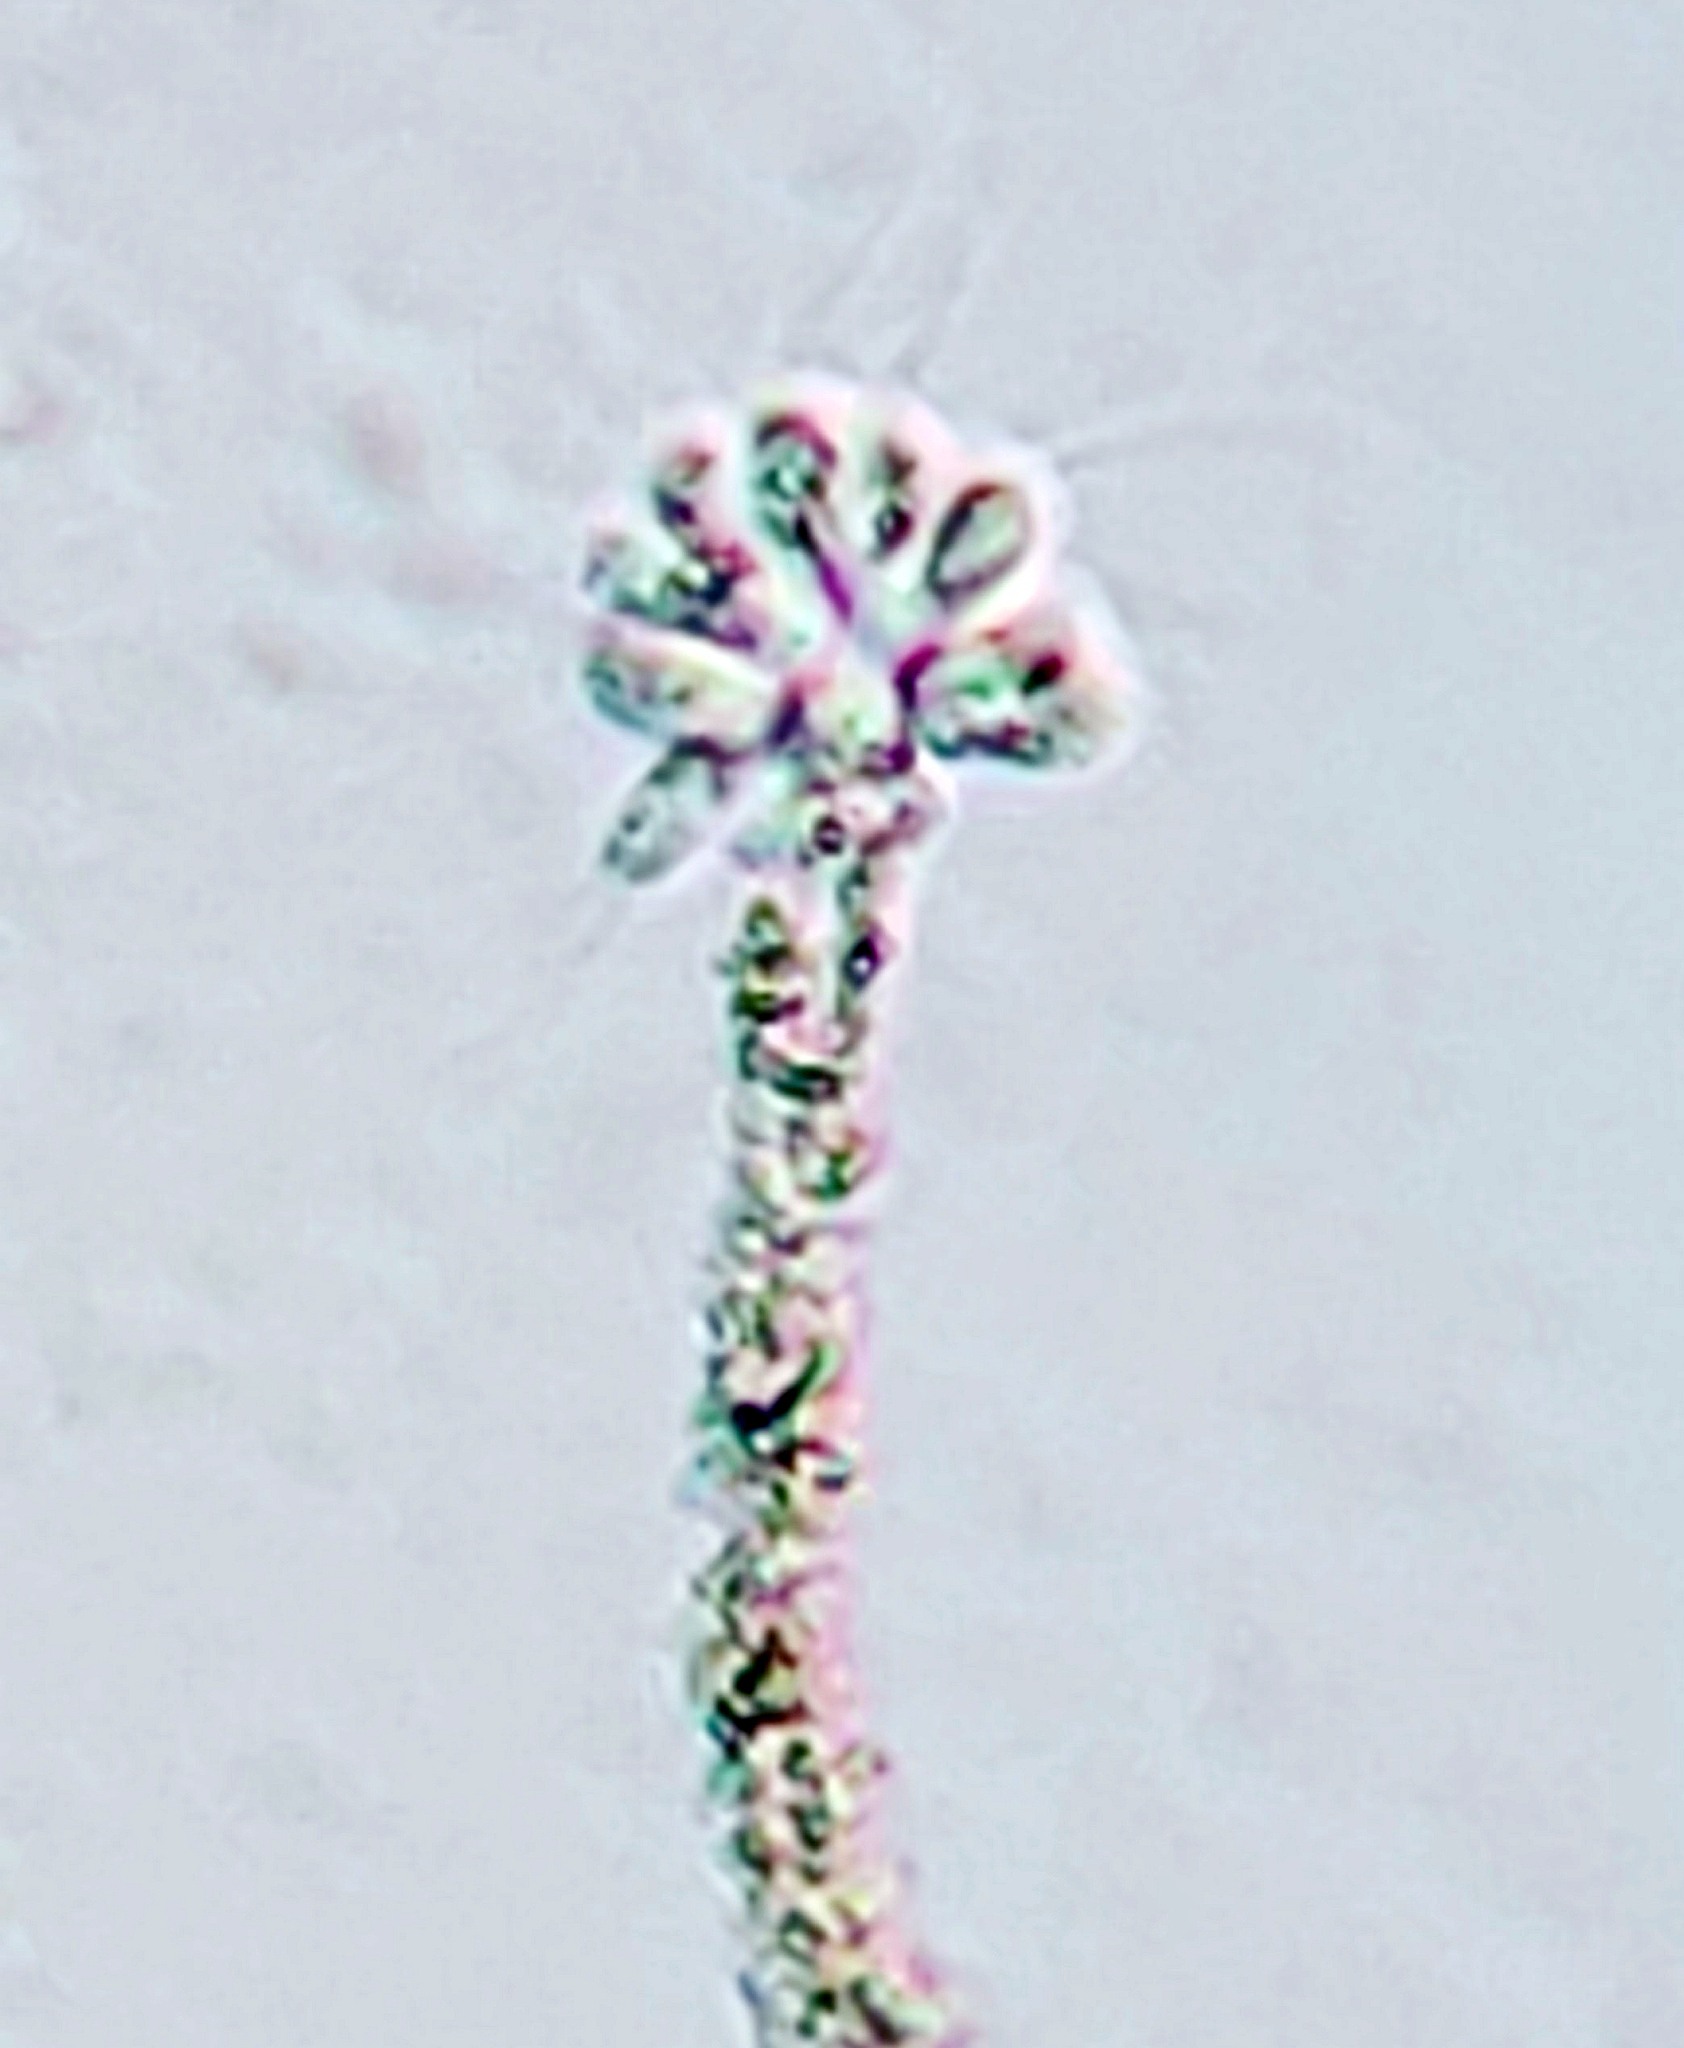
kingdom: Chromista
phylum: Ochrophyta
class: Chrysophyceae
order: Chromulinales
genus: Anthophysa
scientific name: Anthophysa vegetans
